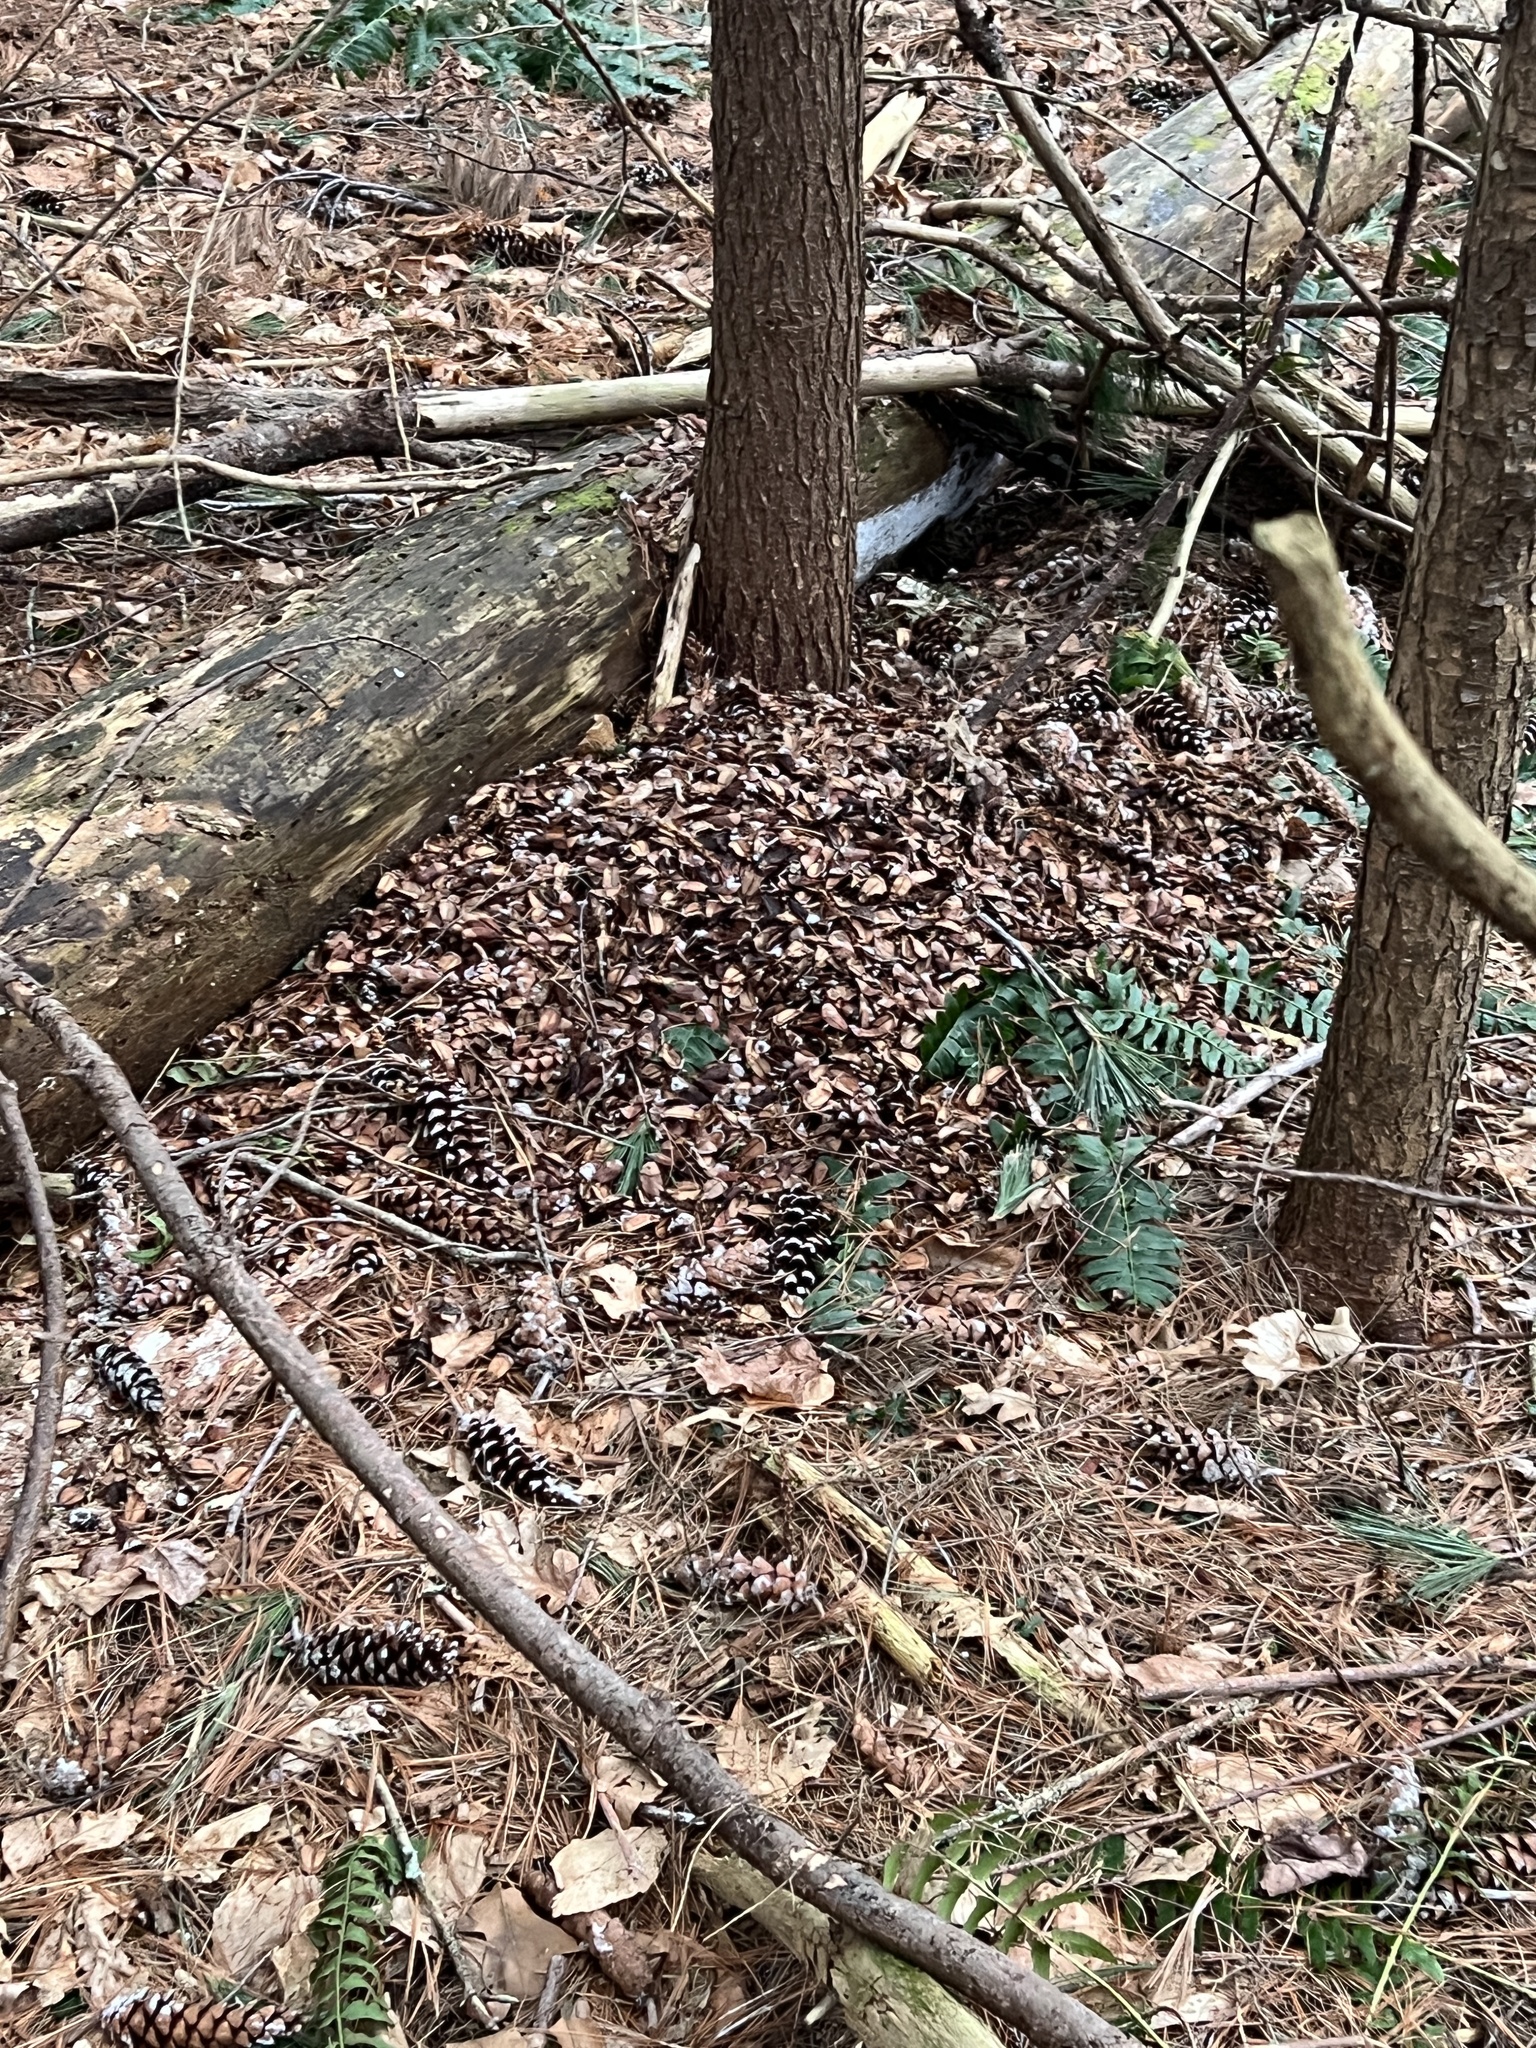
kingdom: Animalia
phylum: Chordata
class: Mammalia
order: Rodentia
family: Sciuridae
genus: Tamiasciurus
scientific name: Tamiasciurus hudsonicus
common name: Red squirrel
